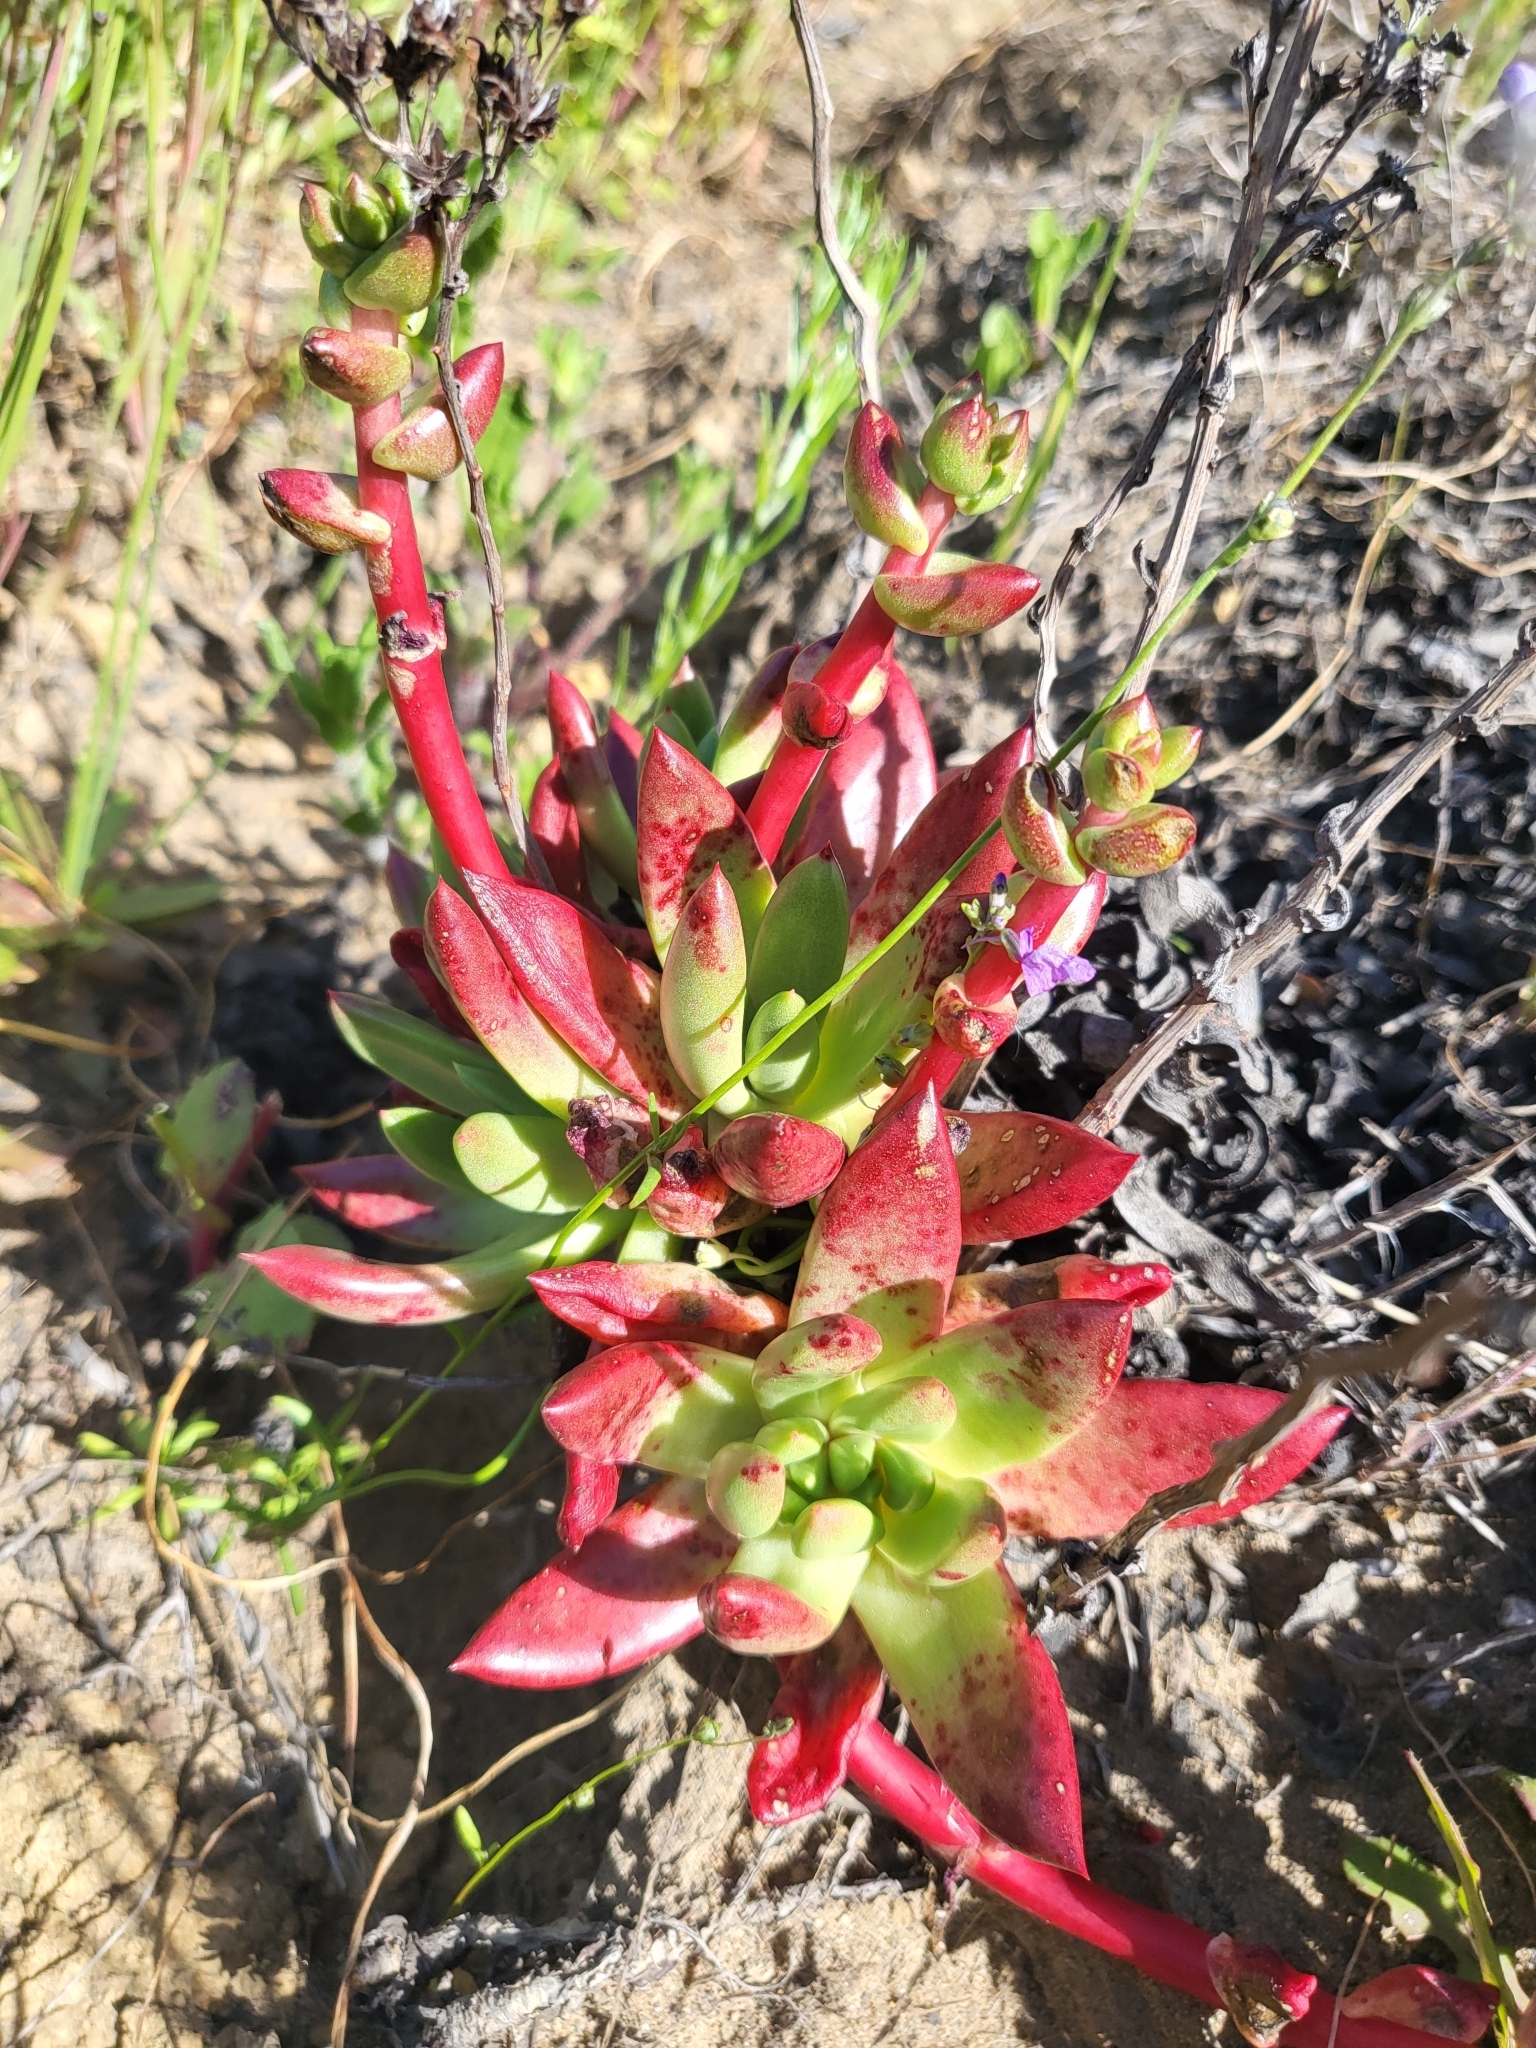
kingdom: Plantae
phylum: Tracheophyta
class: Magnoliopsida
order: Saxifragales
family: Crassulaceae
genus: Dudleya
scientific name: Dudleya farinosa
